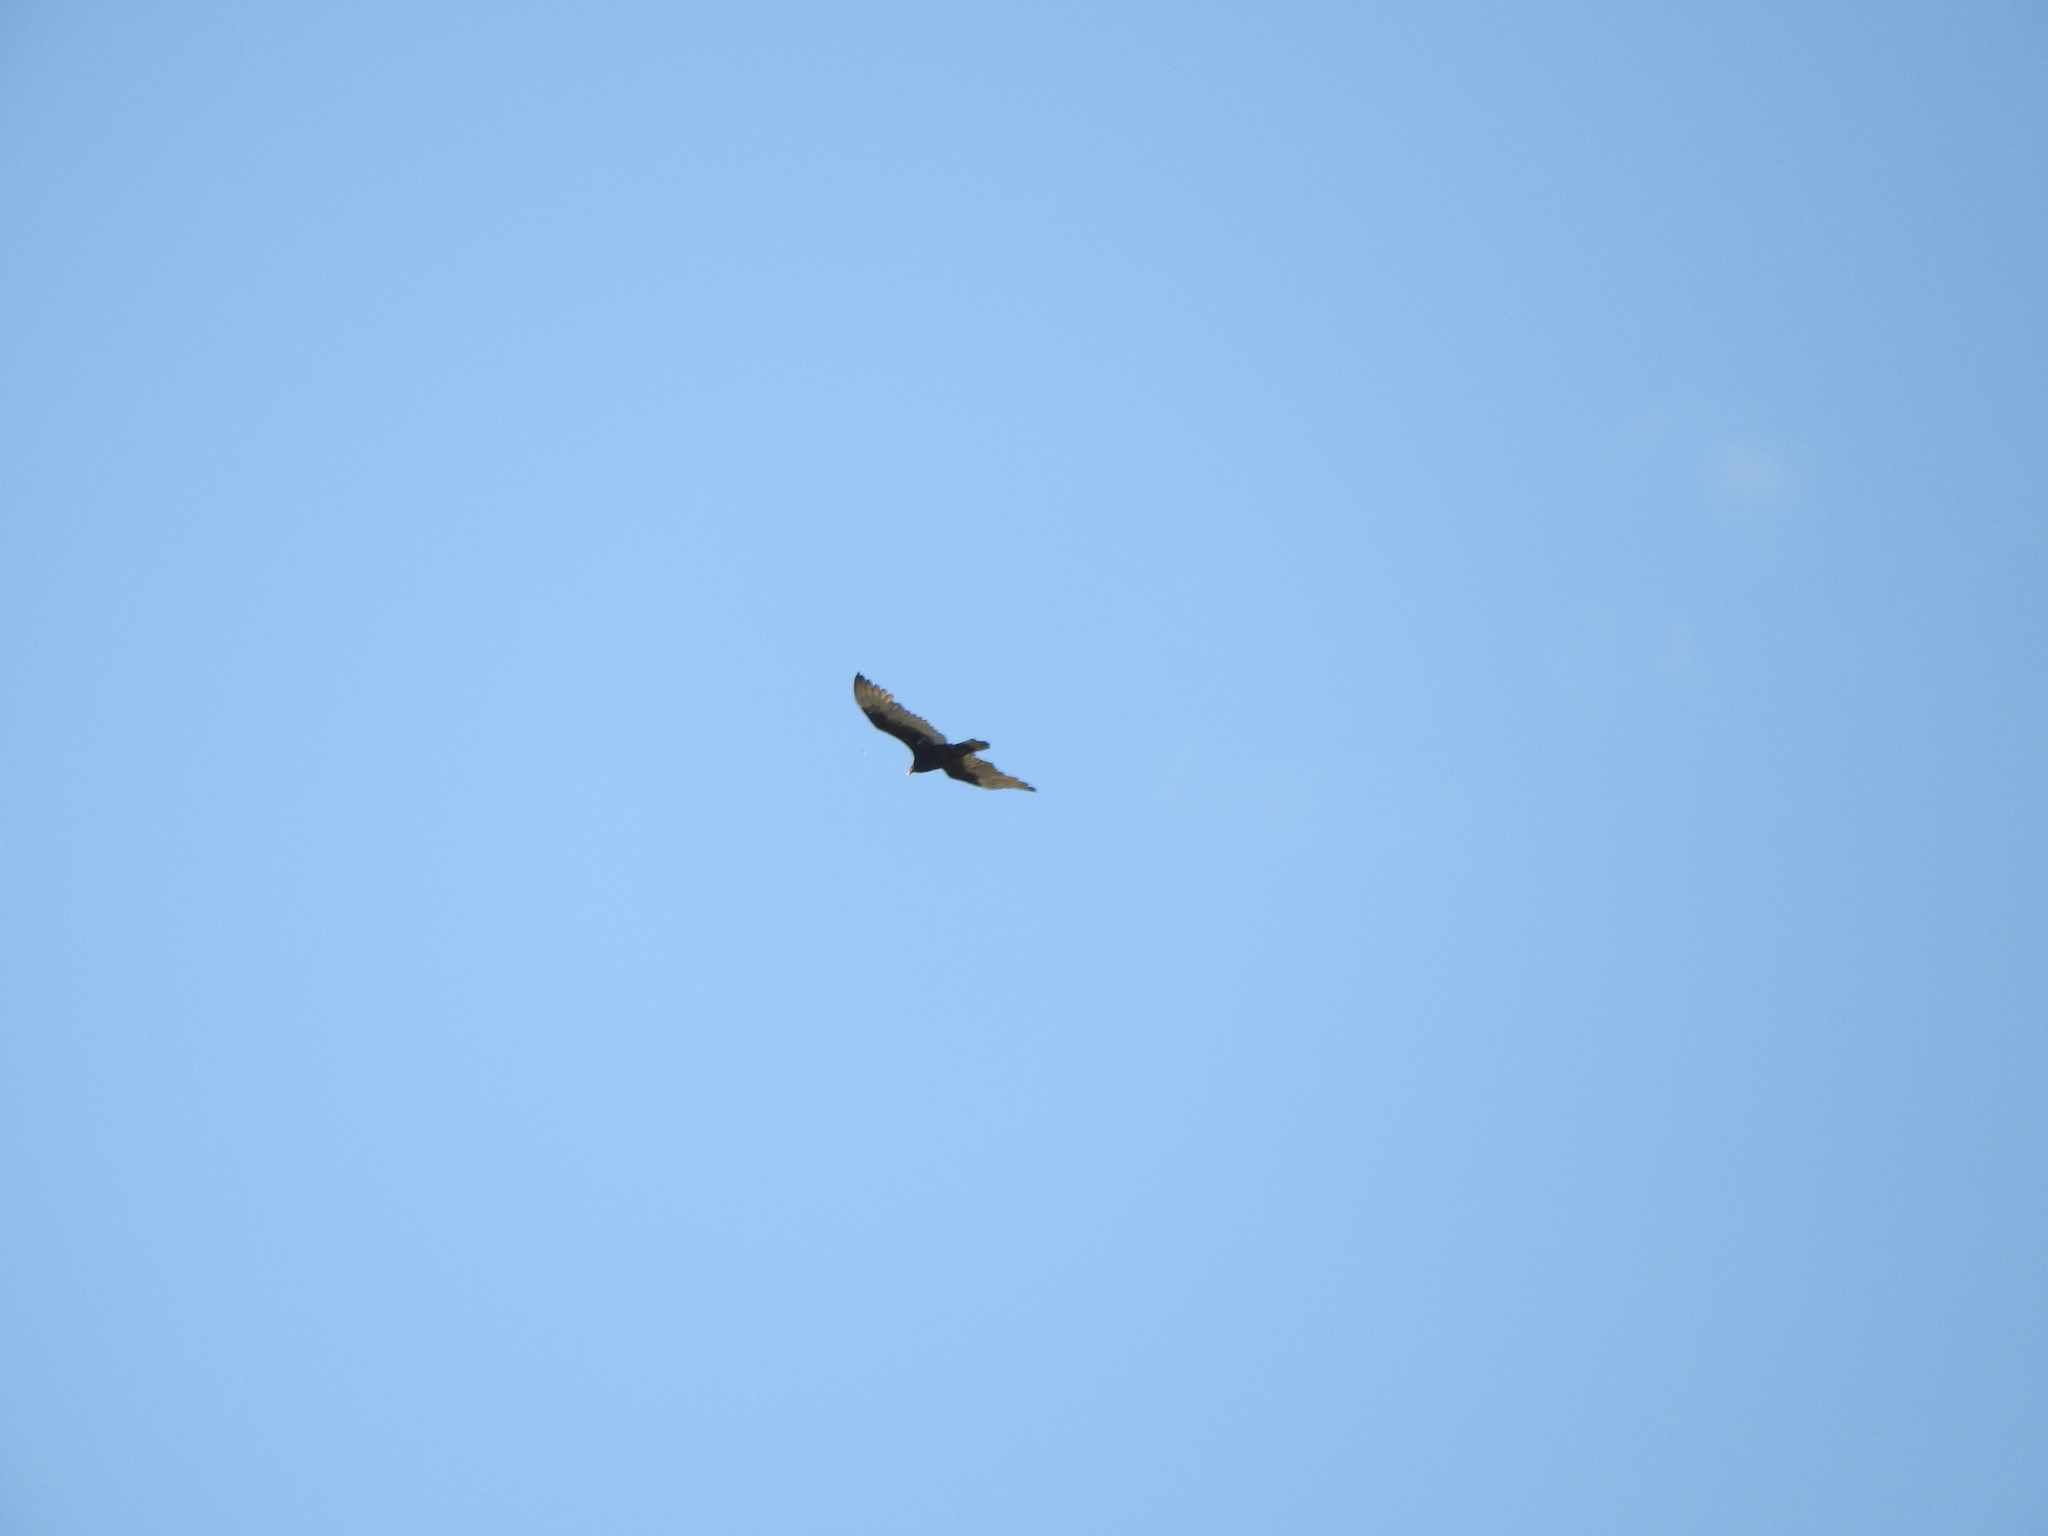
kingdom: Animalia
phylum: Chordata
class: Aves
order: Accipitriformes
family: Cathartidae
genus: Cathartes
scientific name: Cathartes aura
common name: Turkey vulture
